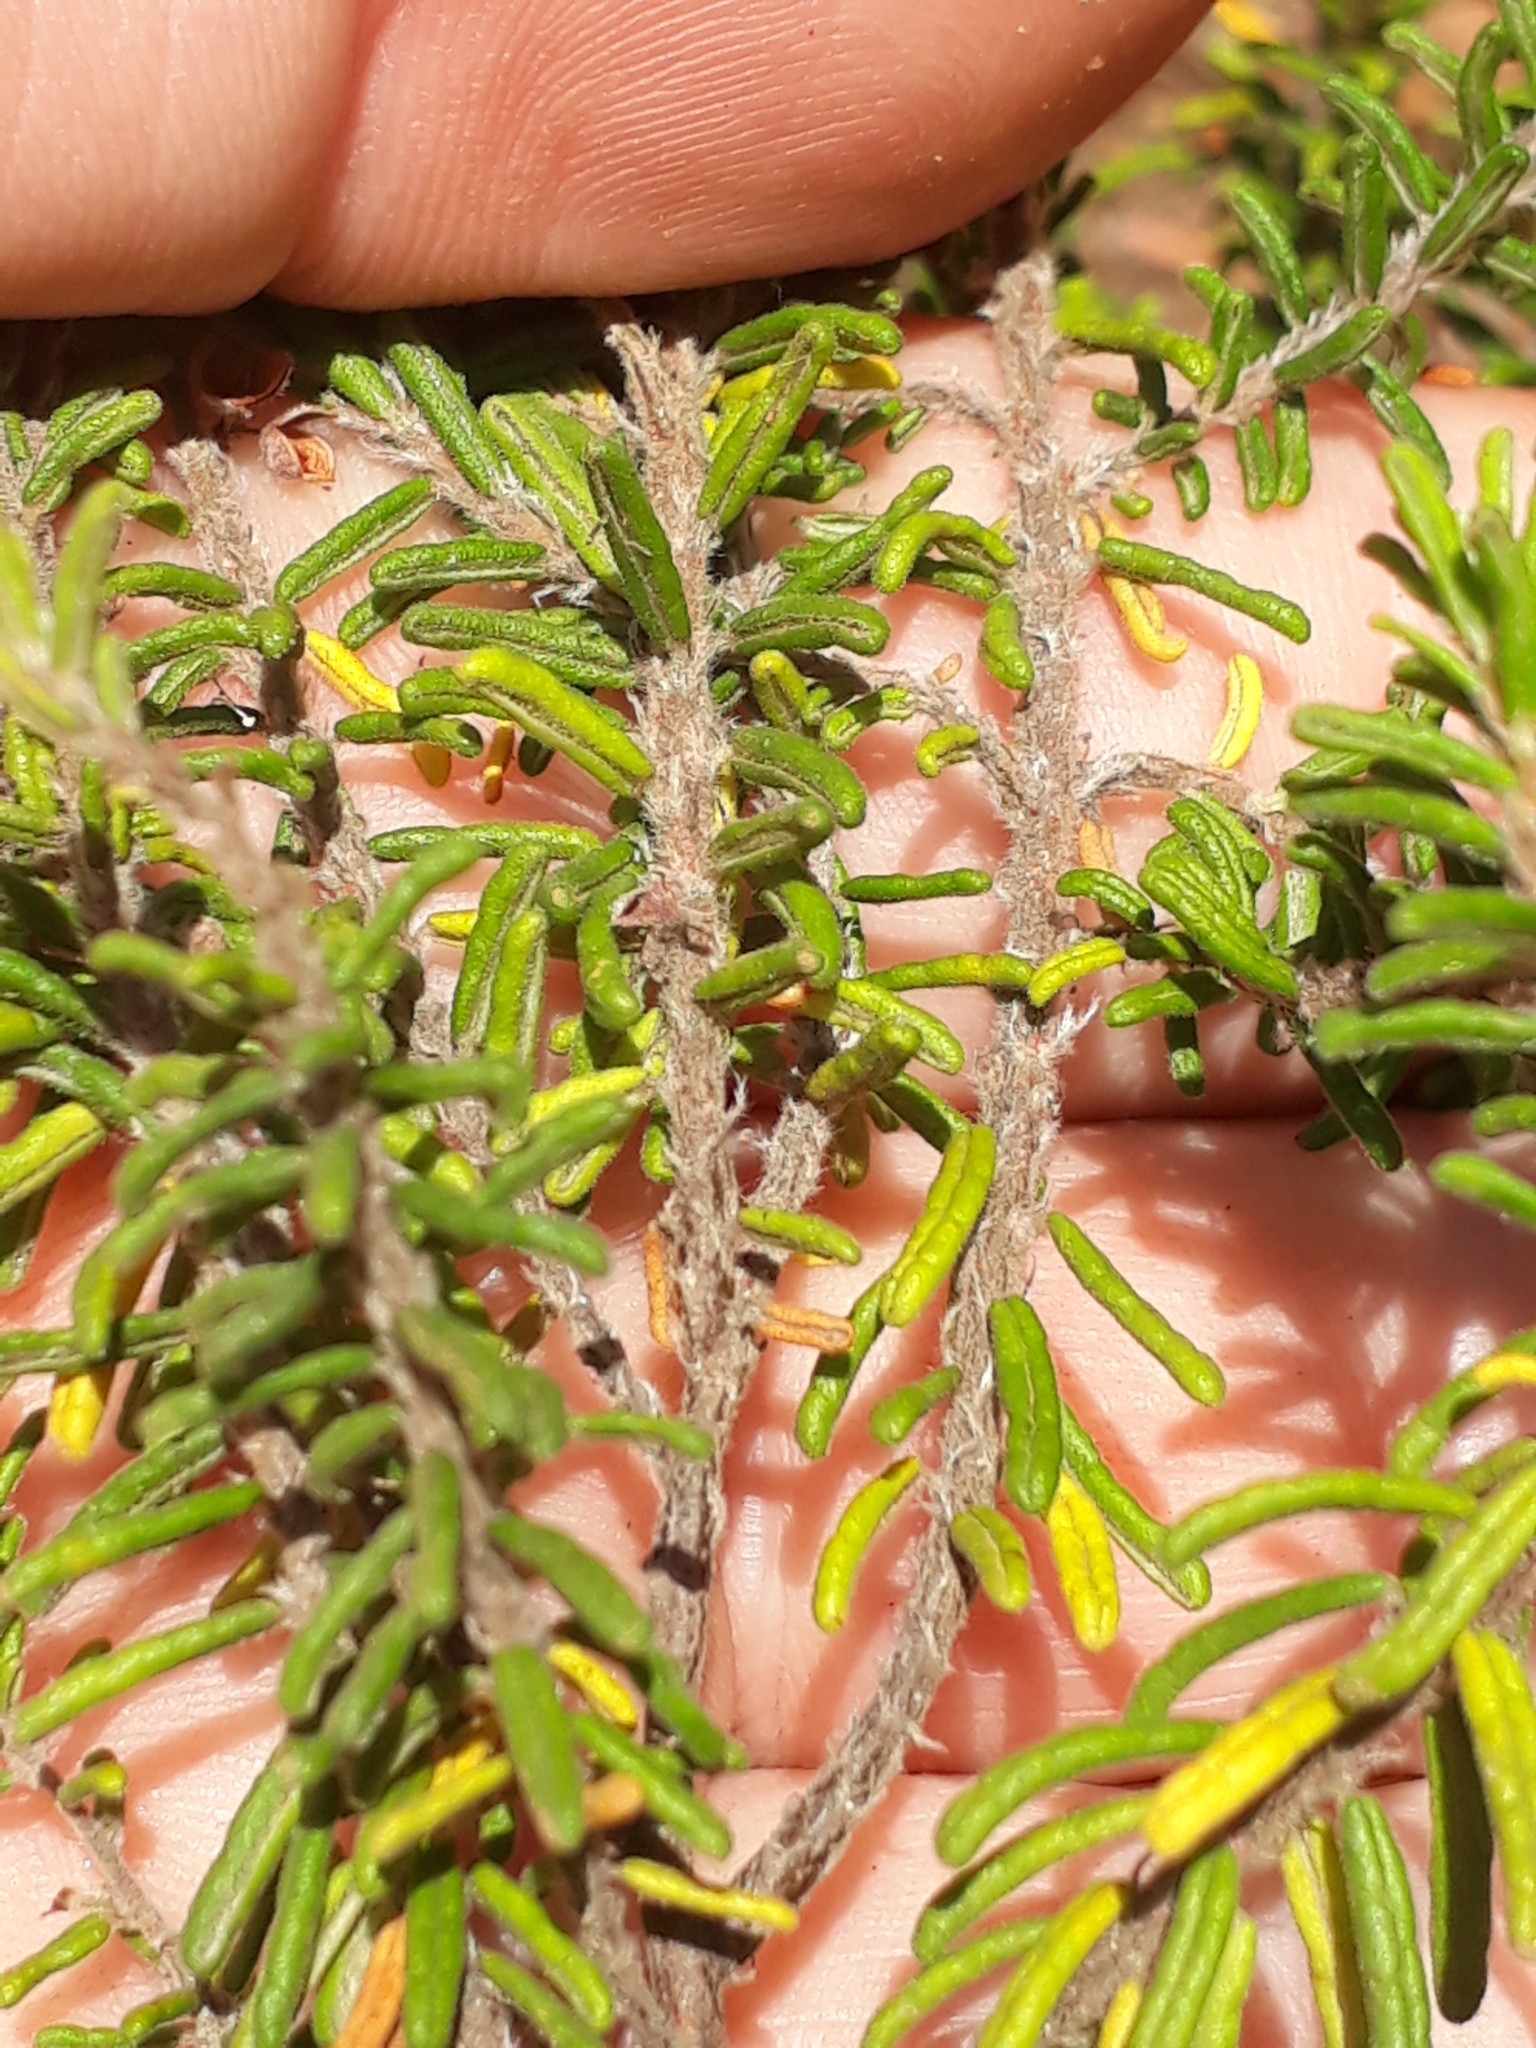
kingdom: Plantae
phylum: Tracheophyta
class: Magnoliopsida
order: Rosales
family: Rhamnaceae
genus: Pomaderris
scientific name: Pomaderris amoena
